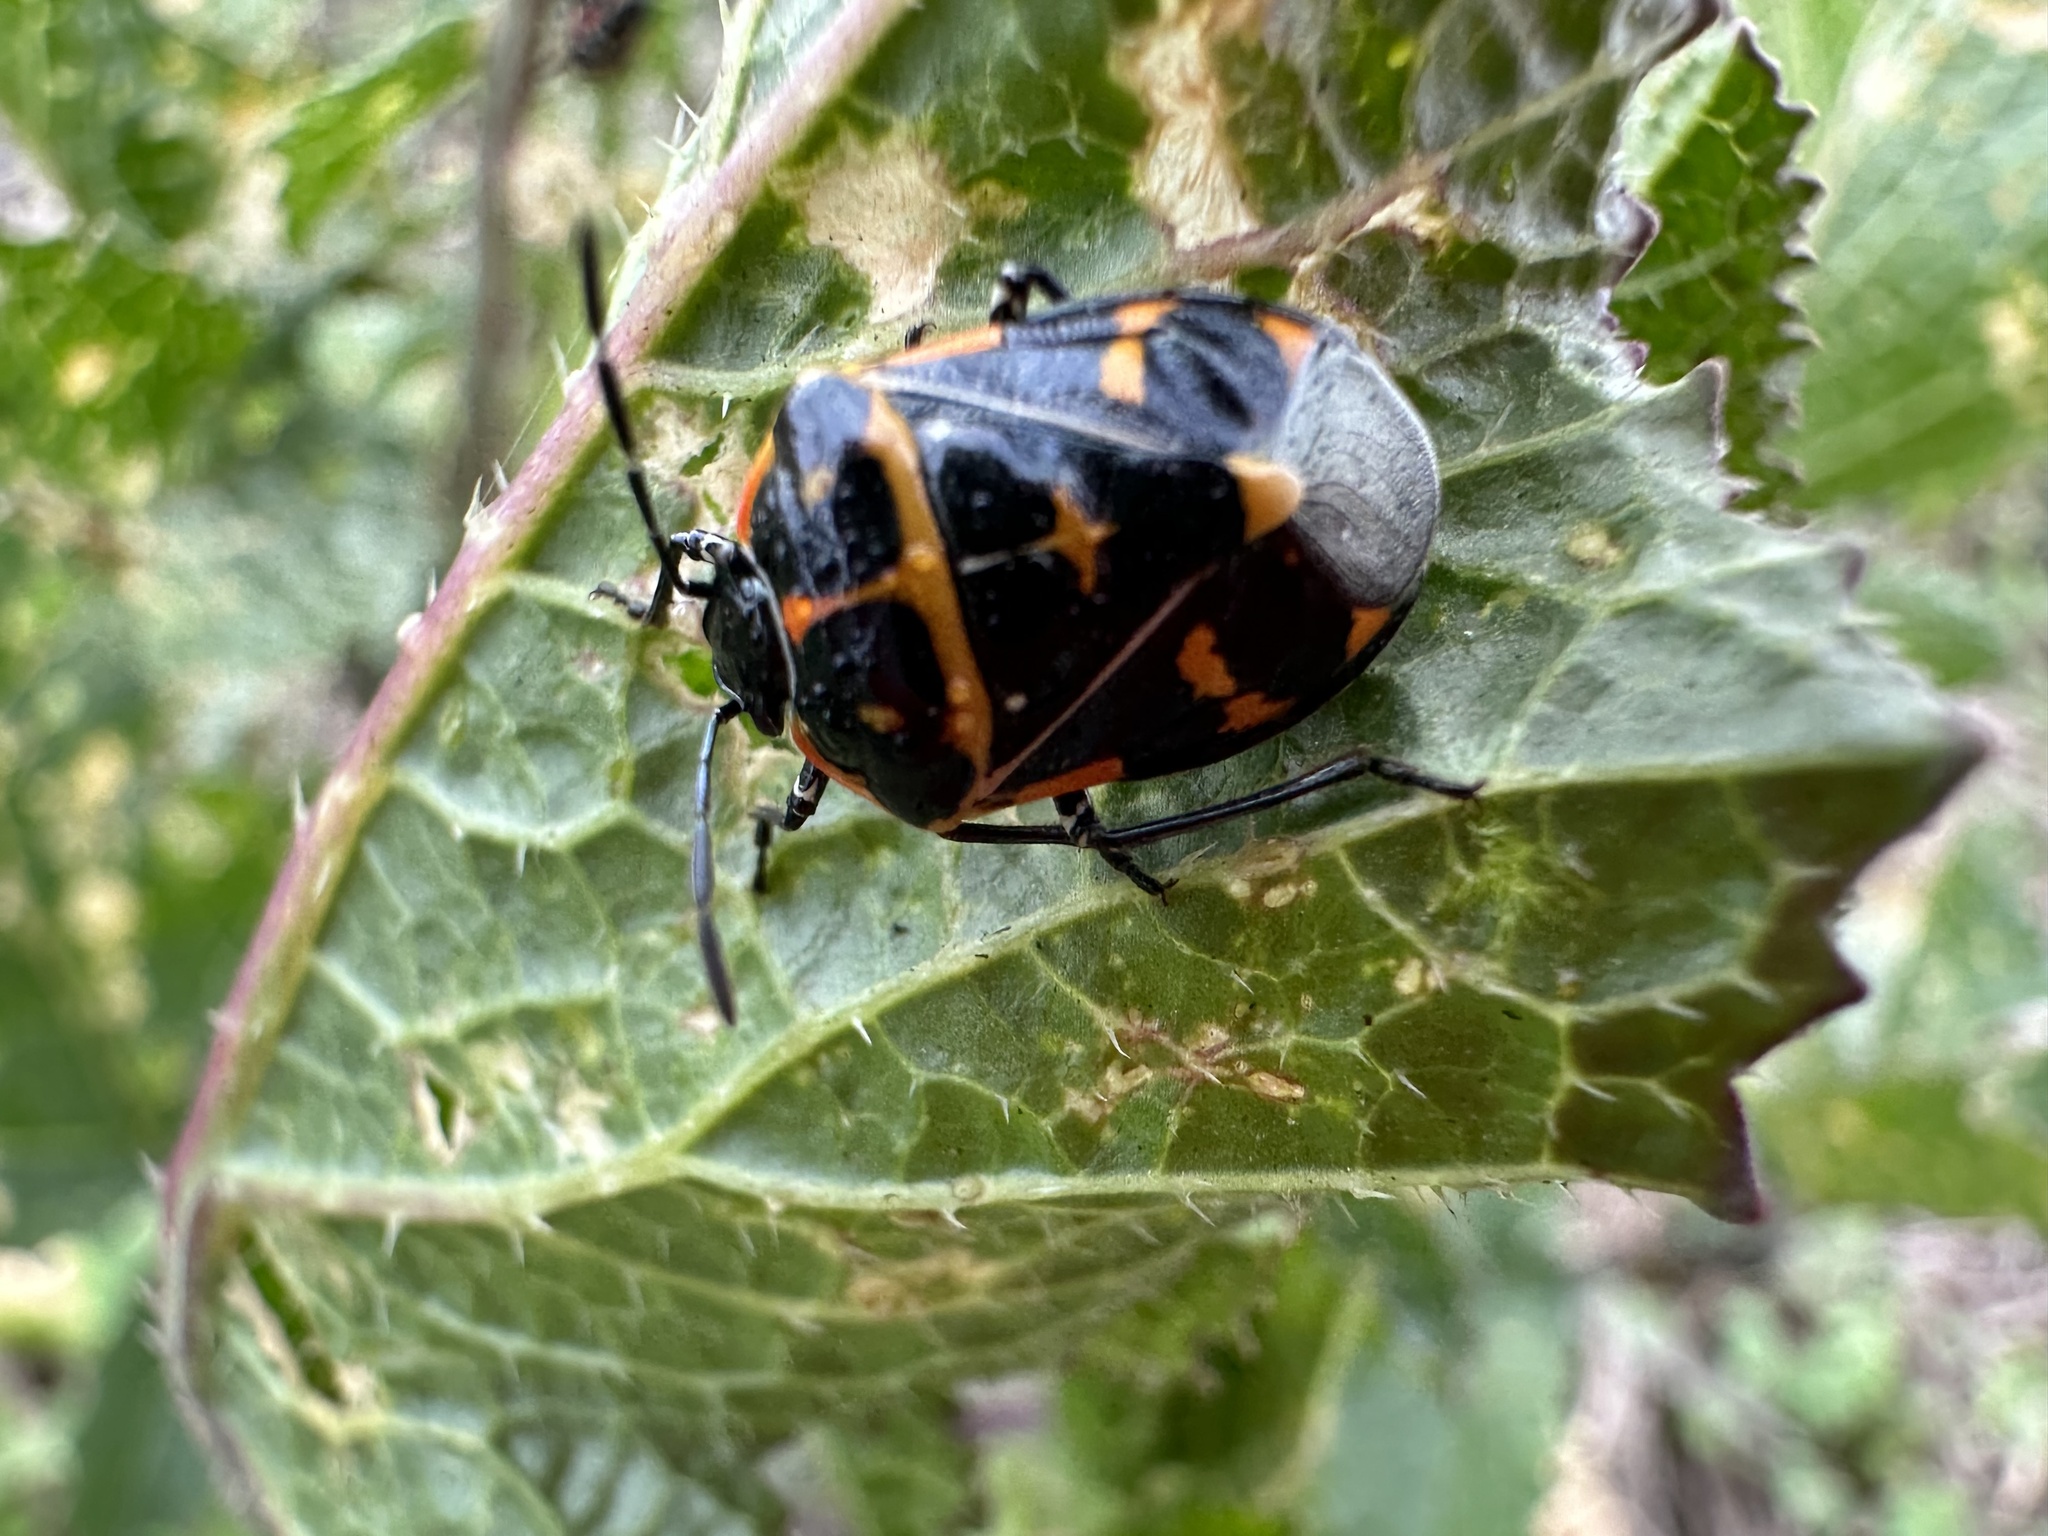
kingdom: Animalia
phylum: Arthropoda
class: Insecta
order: Hemiptera
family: Pentatomidae
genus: Murgantia
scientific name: Murgantia histrionica
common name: Harlequin bug
